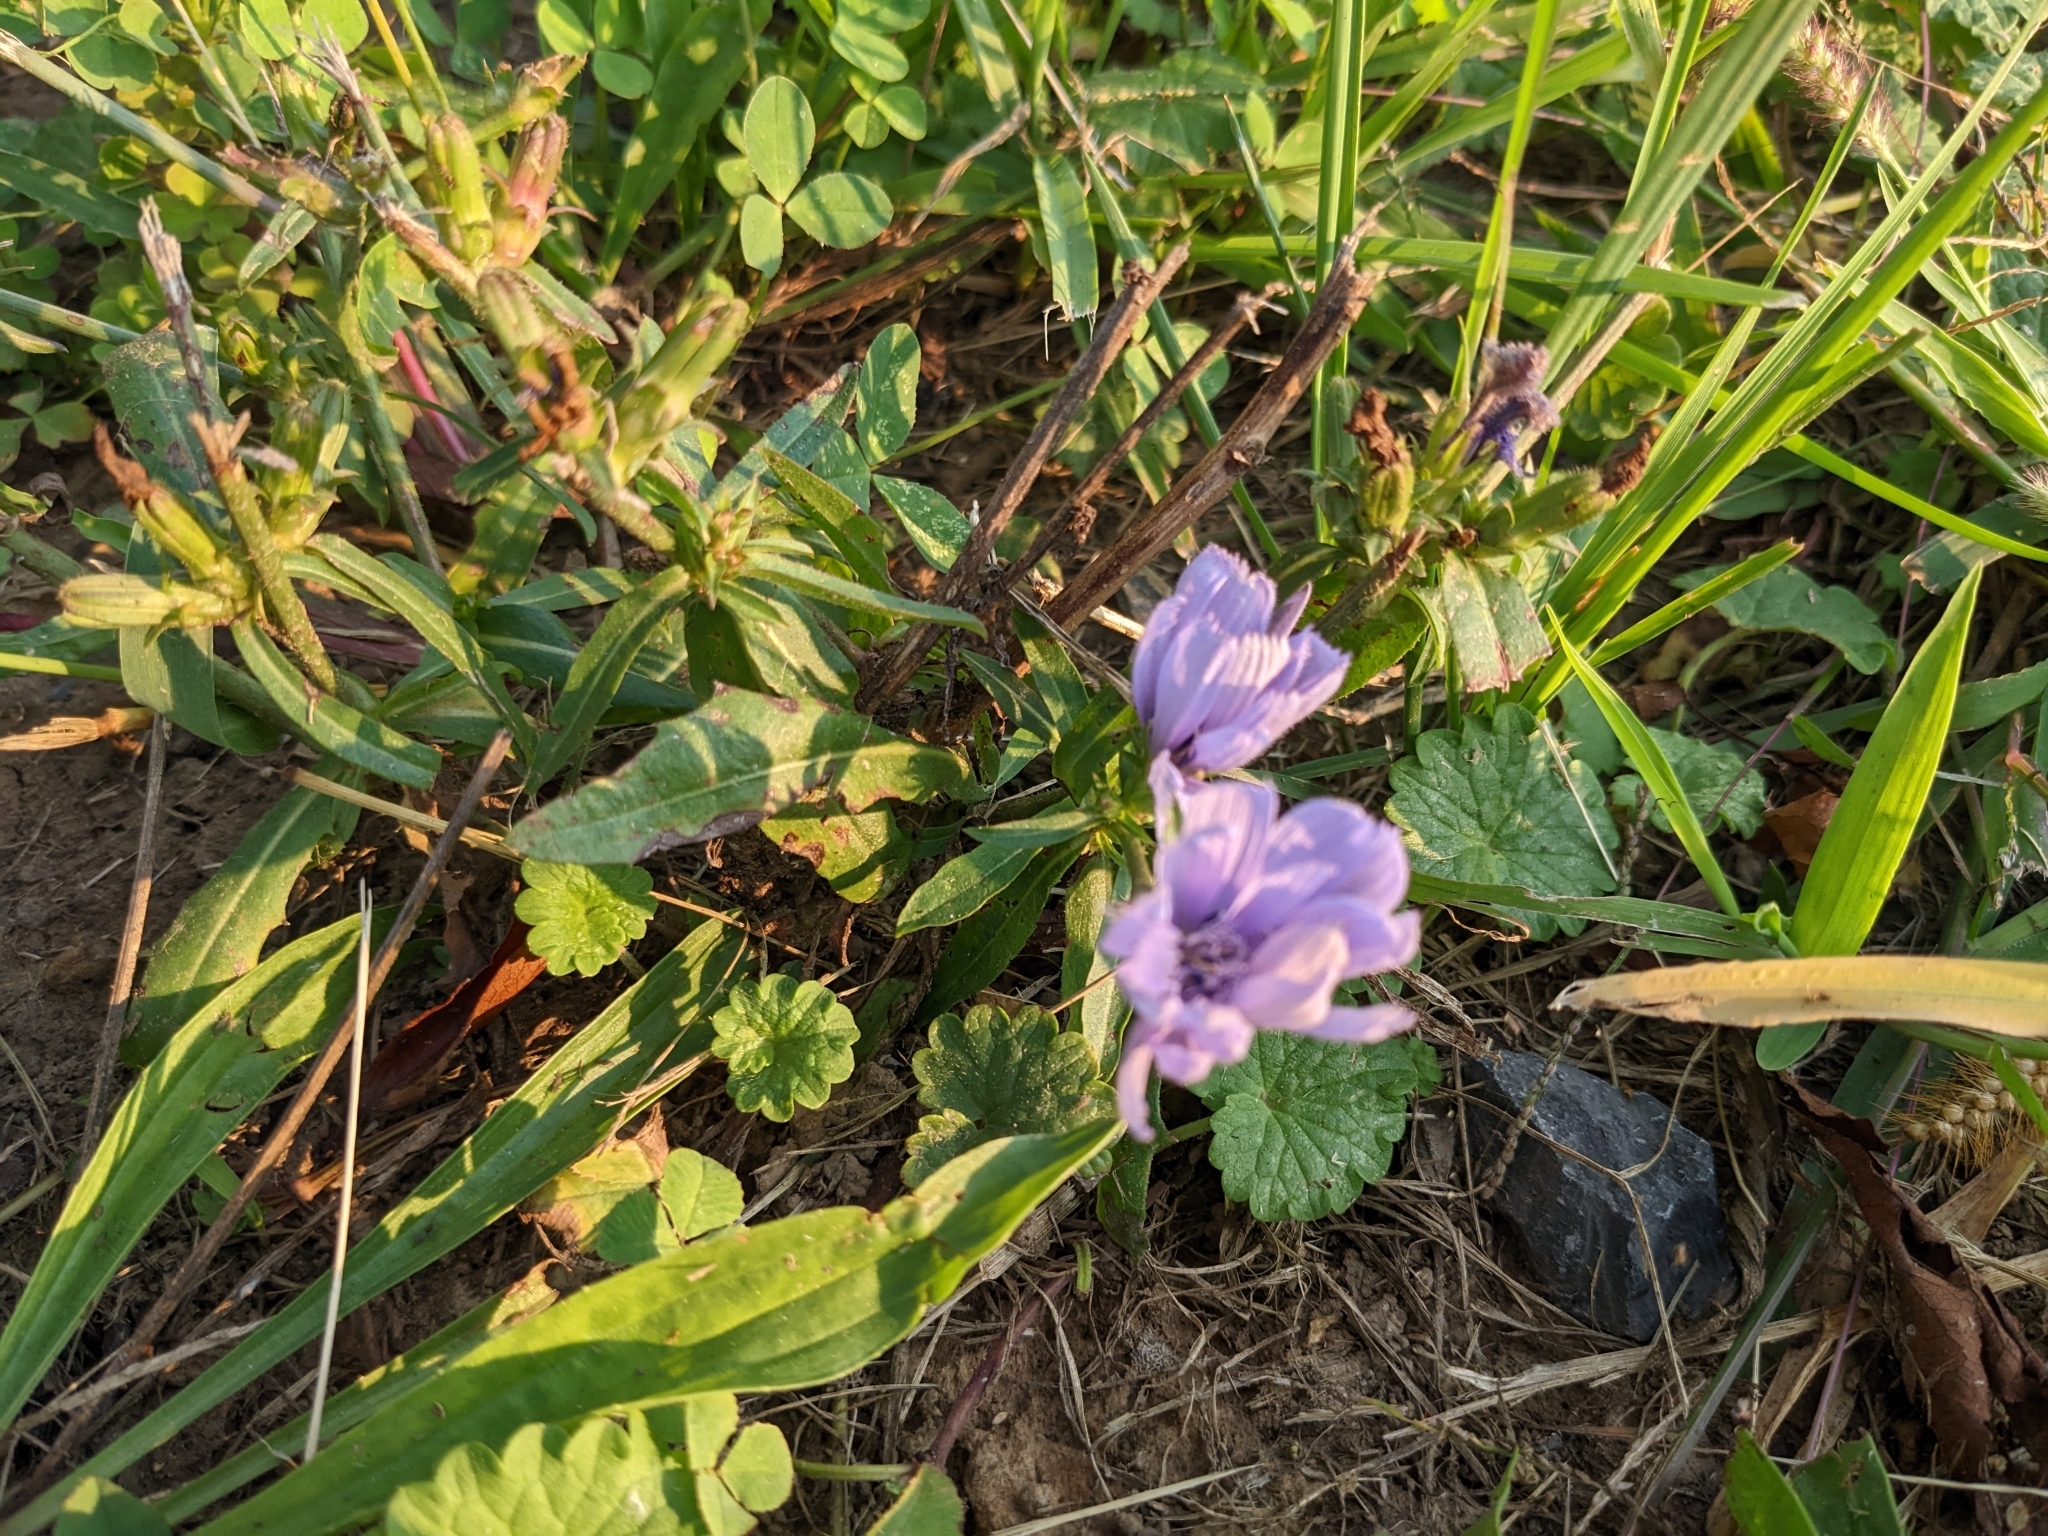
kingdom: Plantae
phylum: Tracheophyta
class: Magnoliopsida
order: Asterales
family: Asteraceae
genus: Cichorium
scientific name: Cichorium intybus
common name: Chicory
